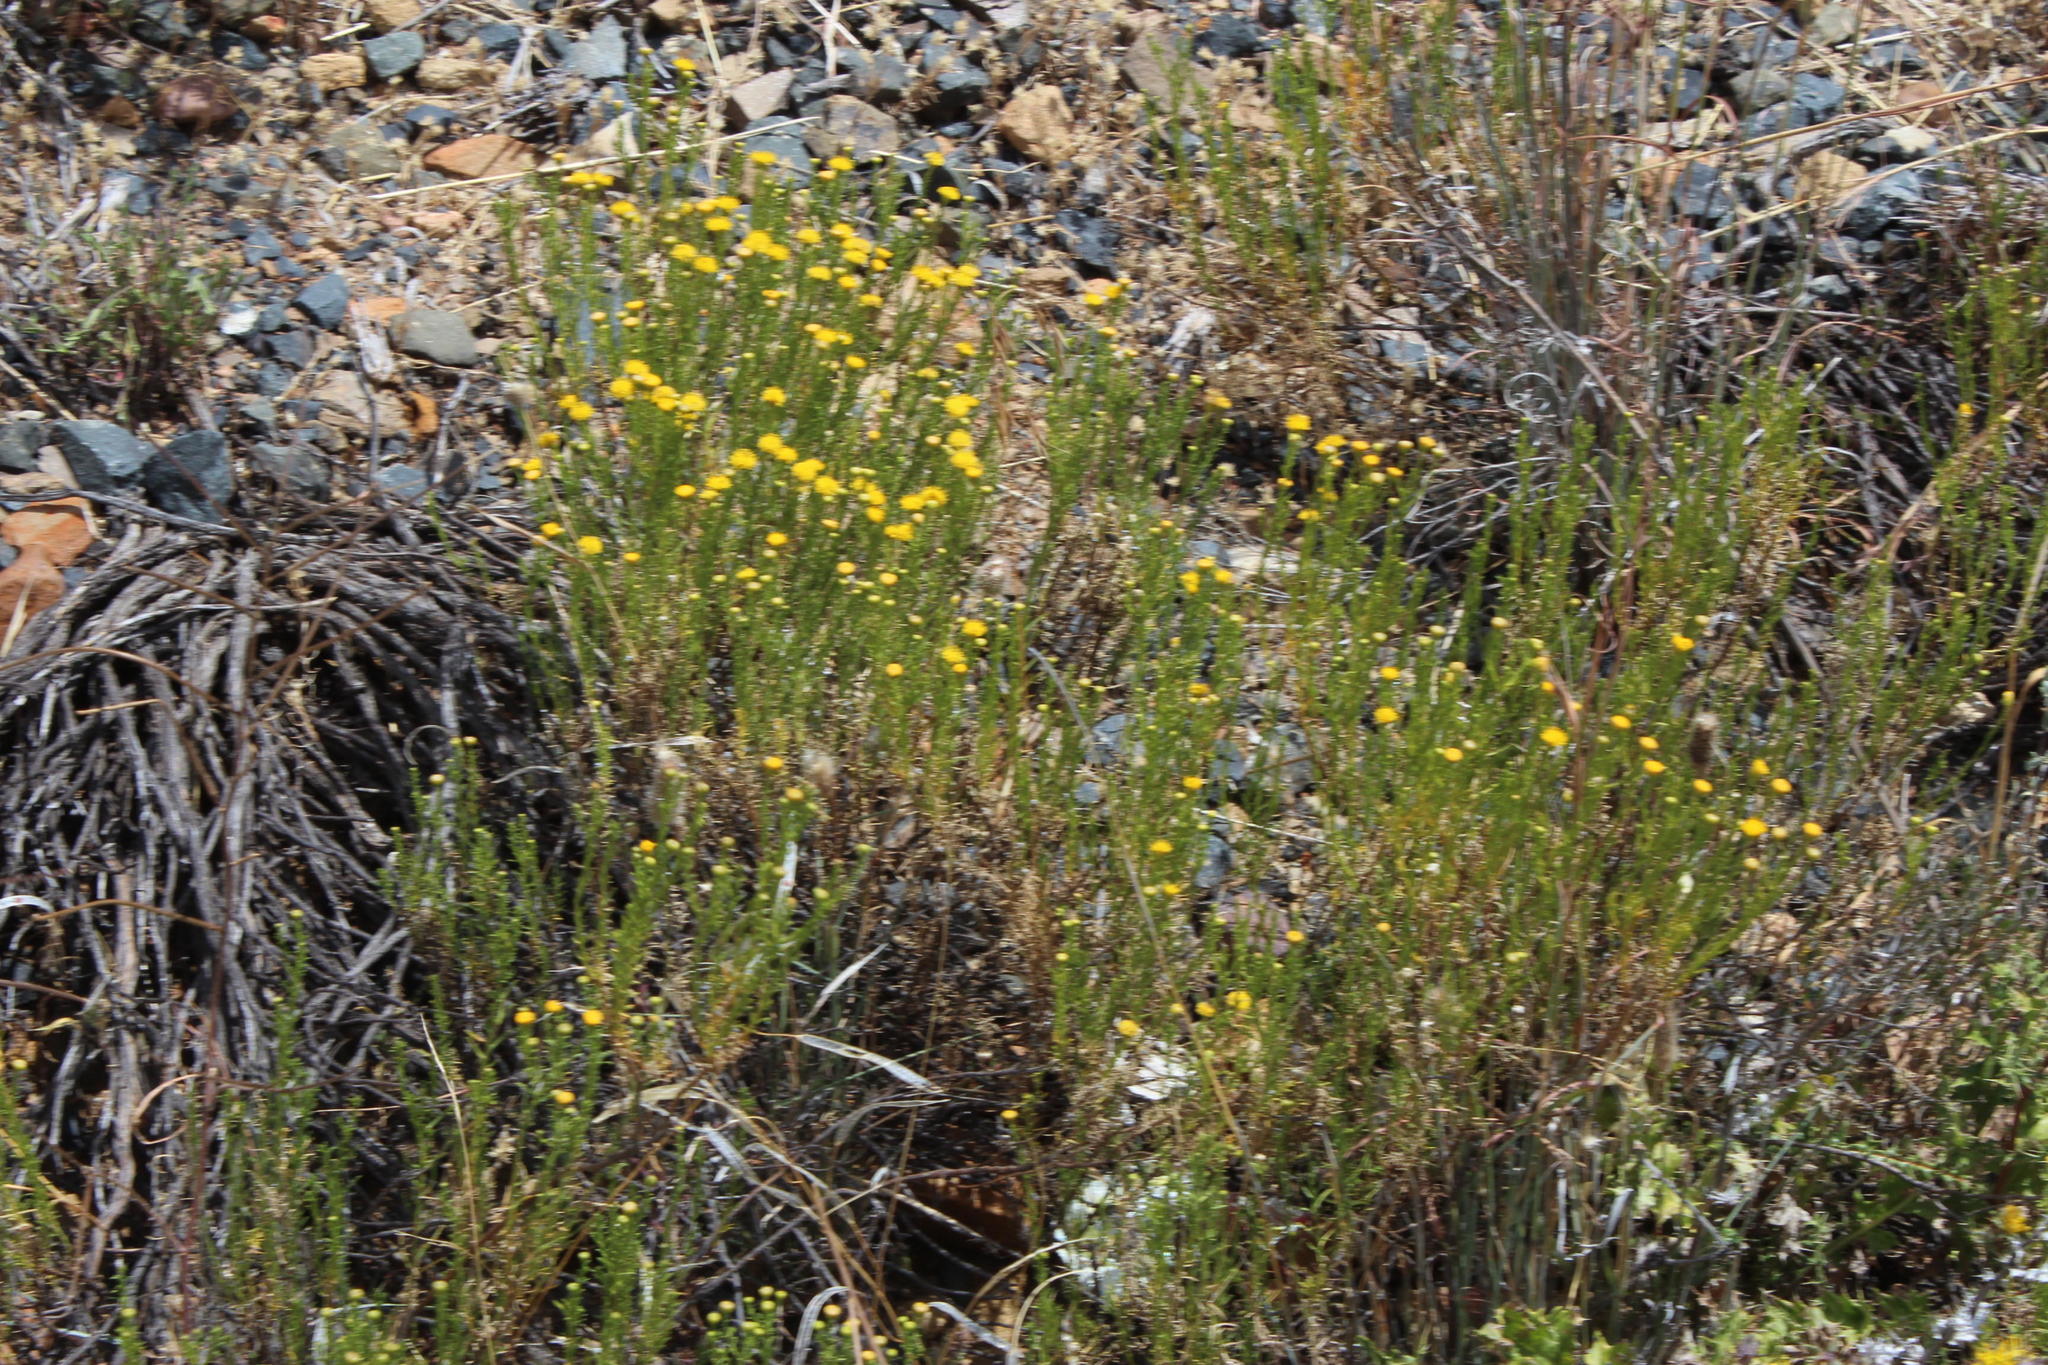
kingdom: Plantae
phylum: Tracheophyta
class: Magnoliopsida
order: Asterales
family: Asteraceae
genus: Chrysocoma
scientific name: Chrysocoma ciliata
